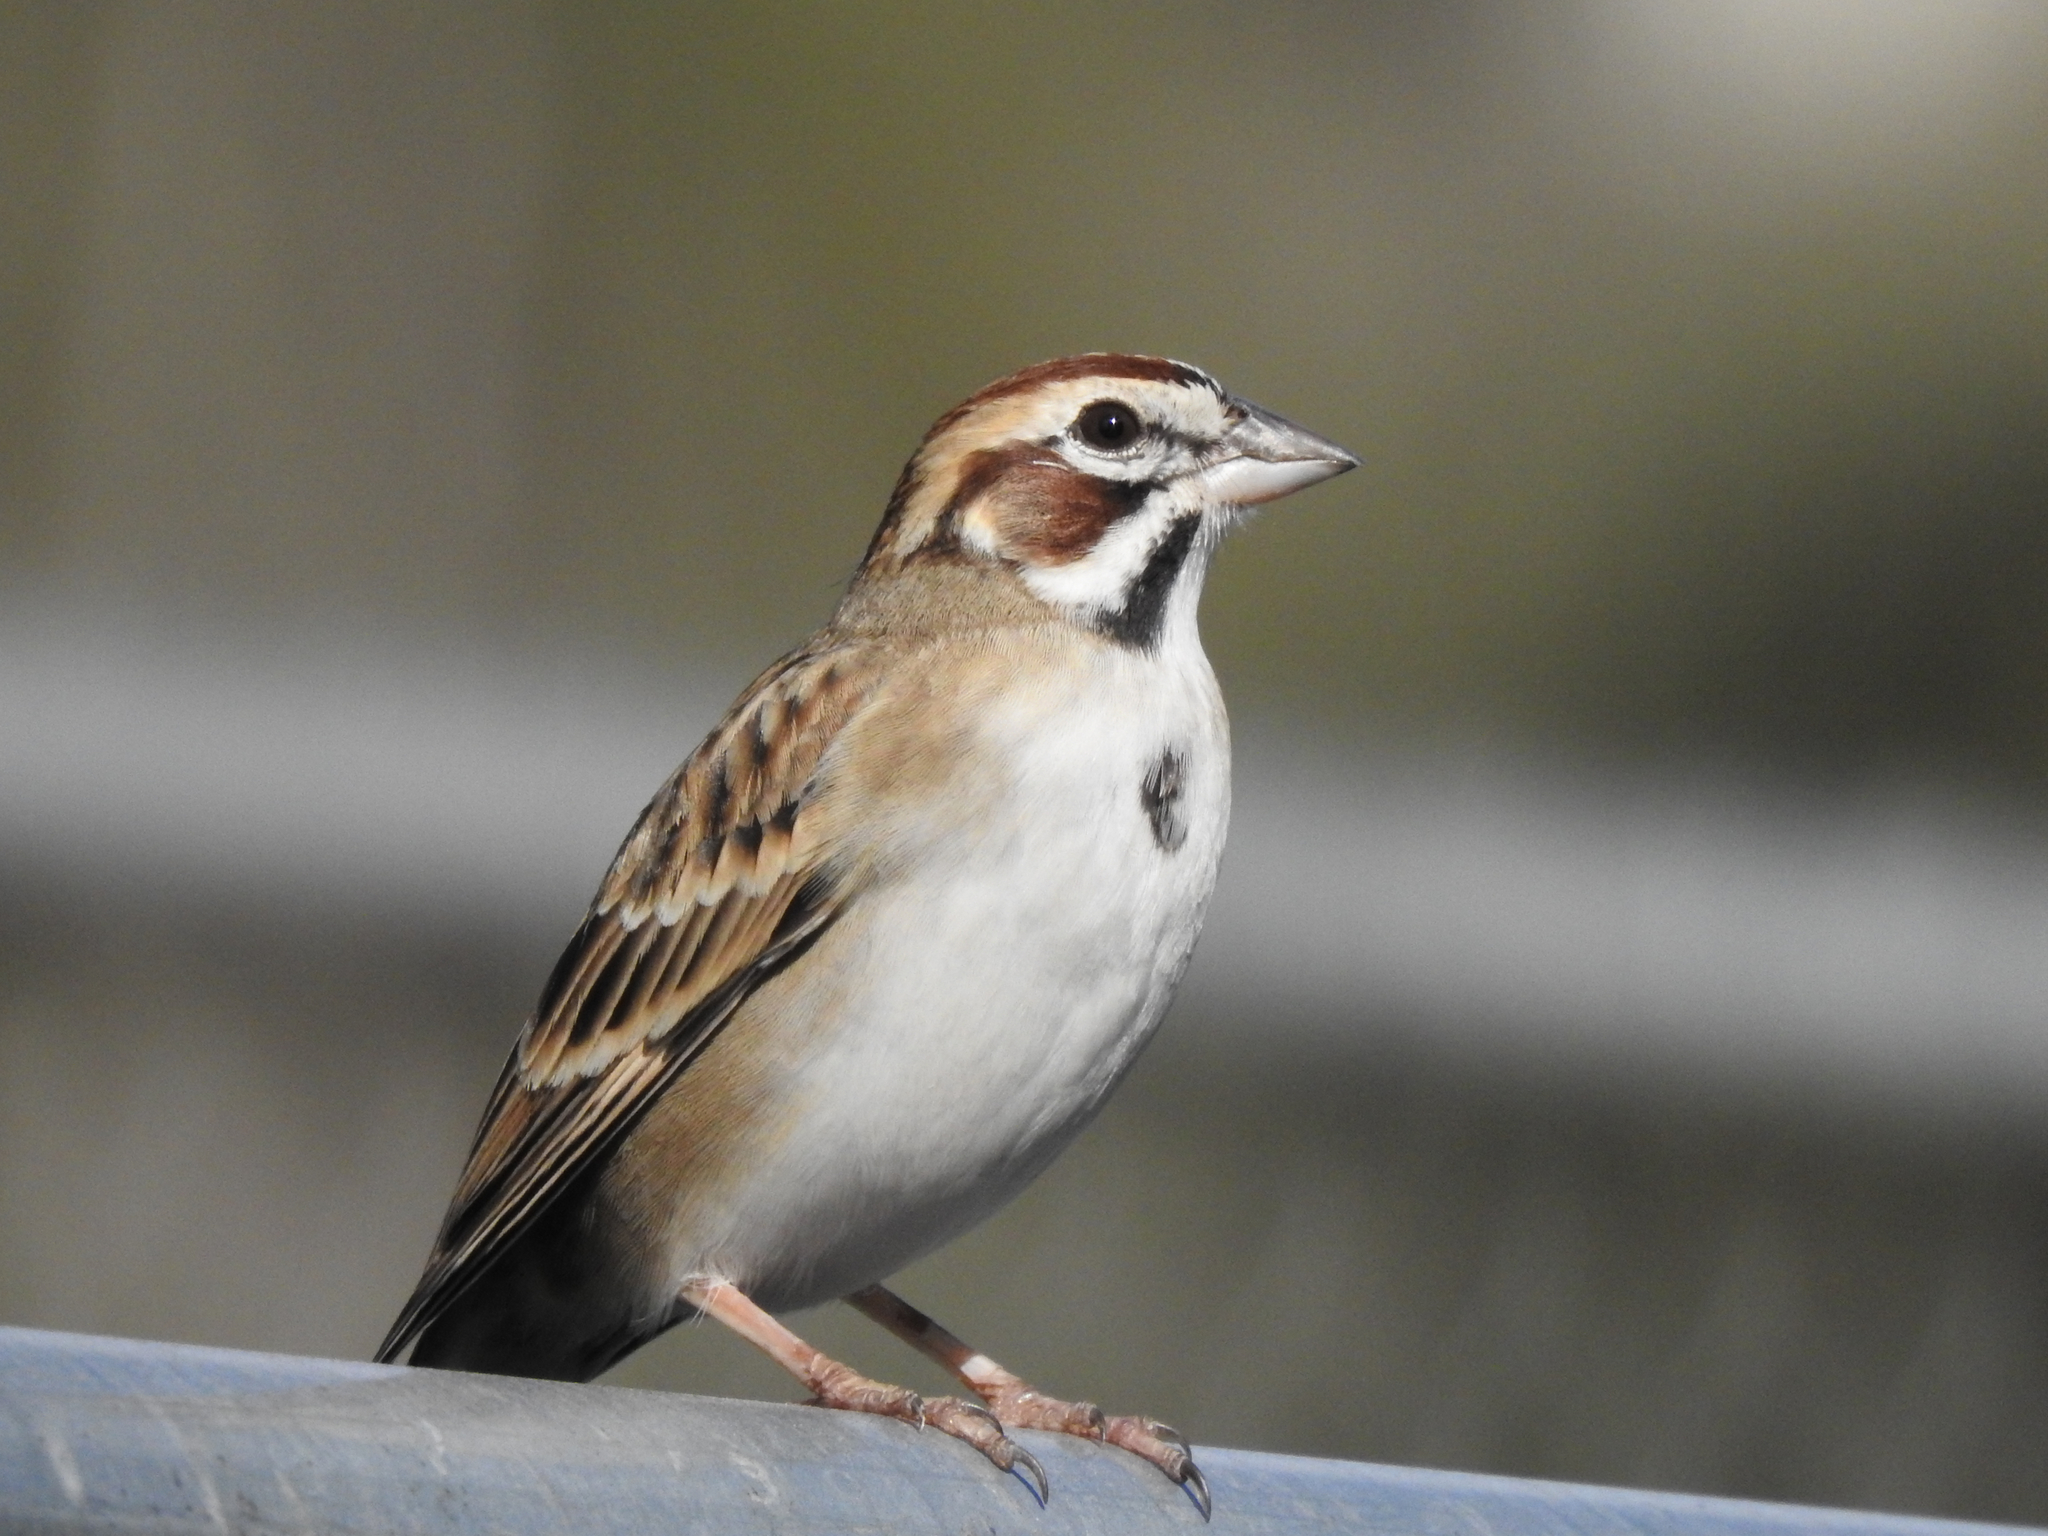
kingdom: Animalia
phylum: Chordata
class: Aves
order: Passeriformes
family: Passerellidae
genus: Chondestes
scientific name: Chondestes grammacus
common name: Lark sparrow
